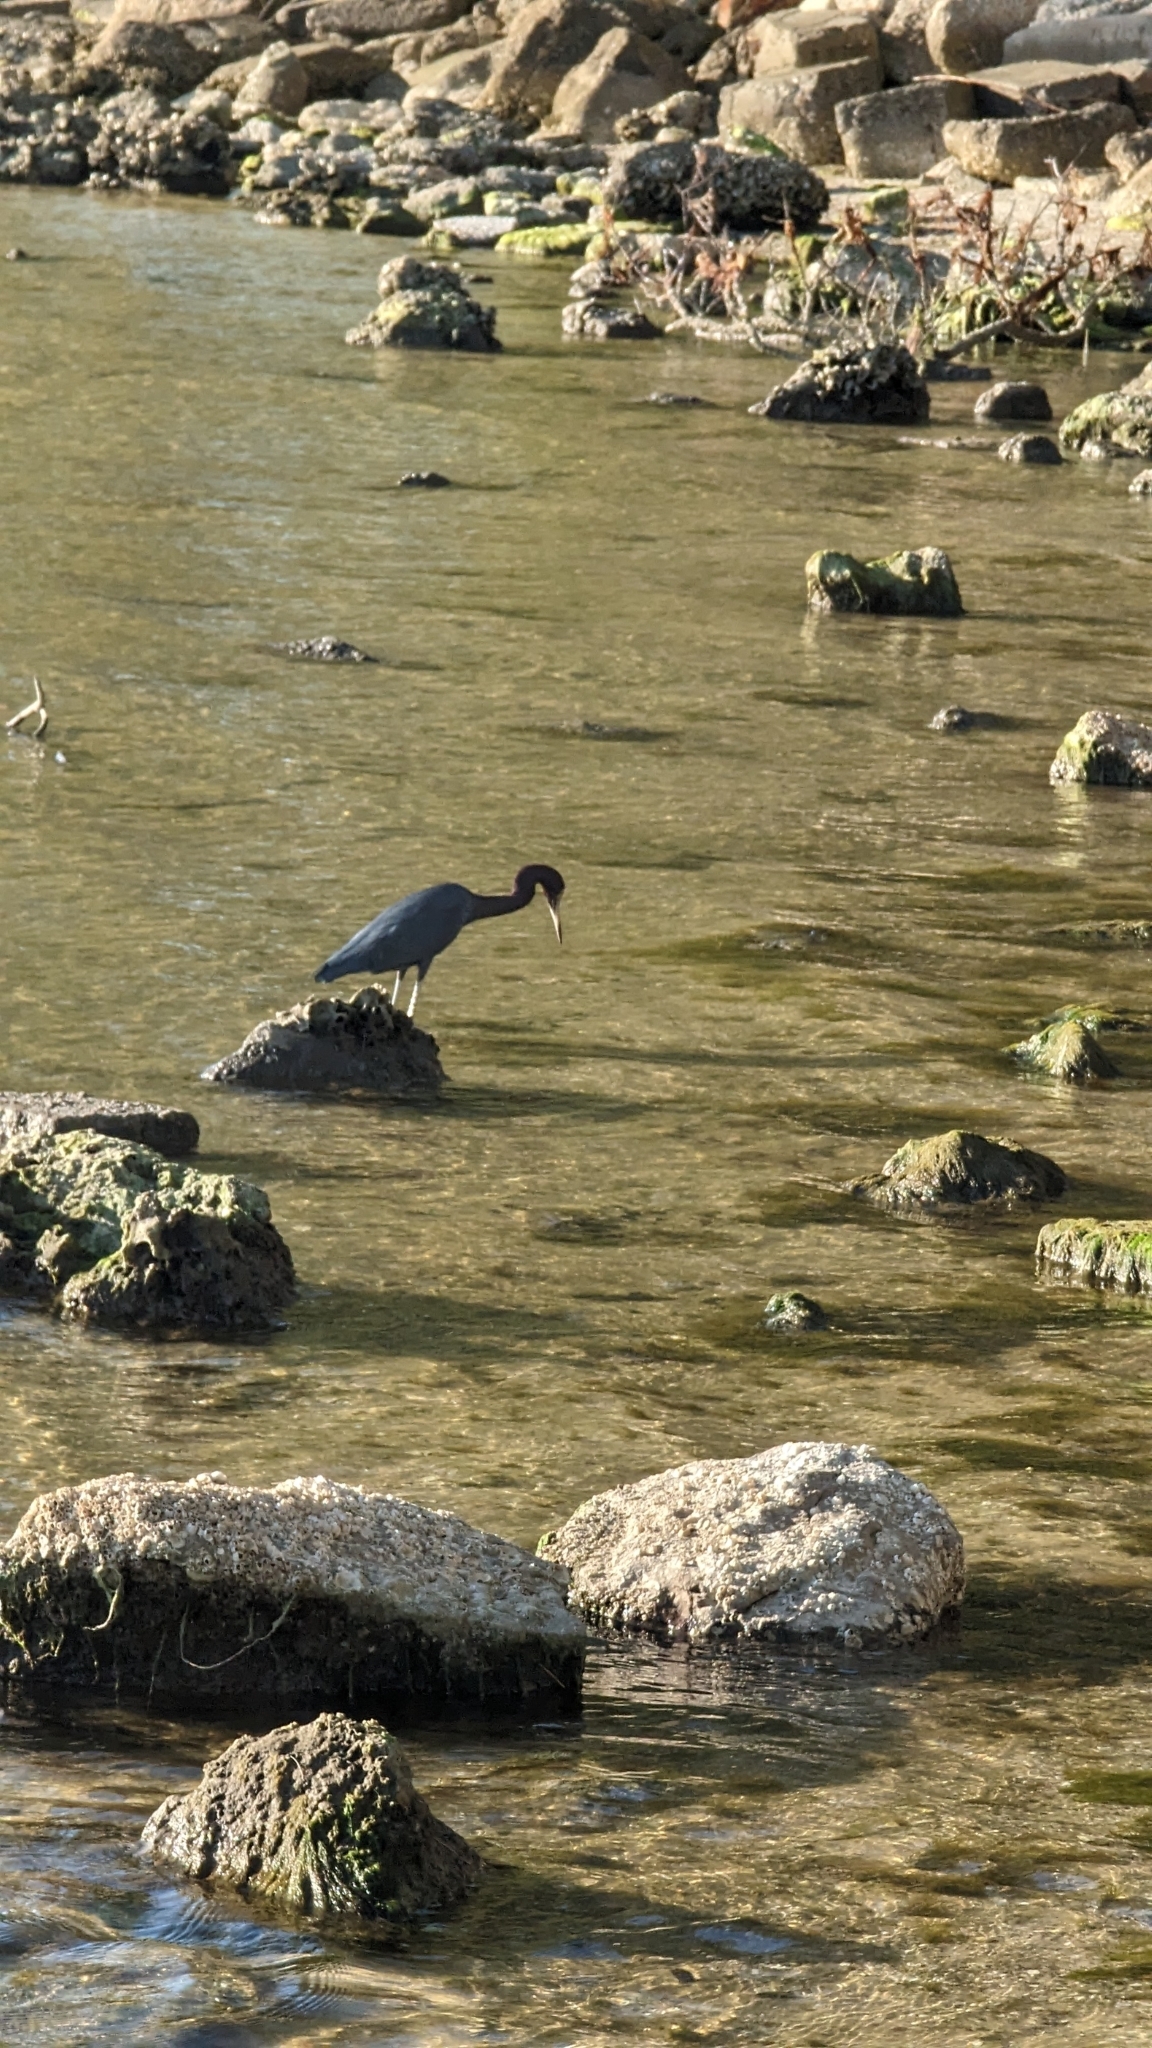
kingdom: Animalia
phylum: Chordata
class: Aves
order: Pelecaniformes
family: Ardeidae
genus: Egretta
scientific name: Egretta caerulea
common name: Little blue heron
